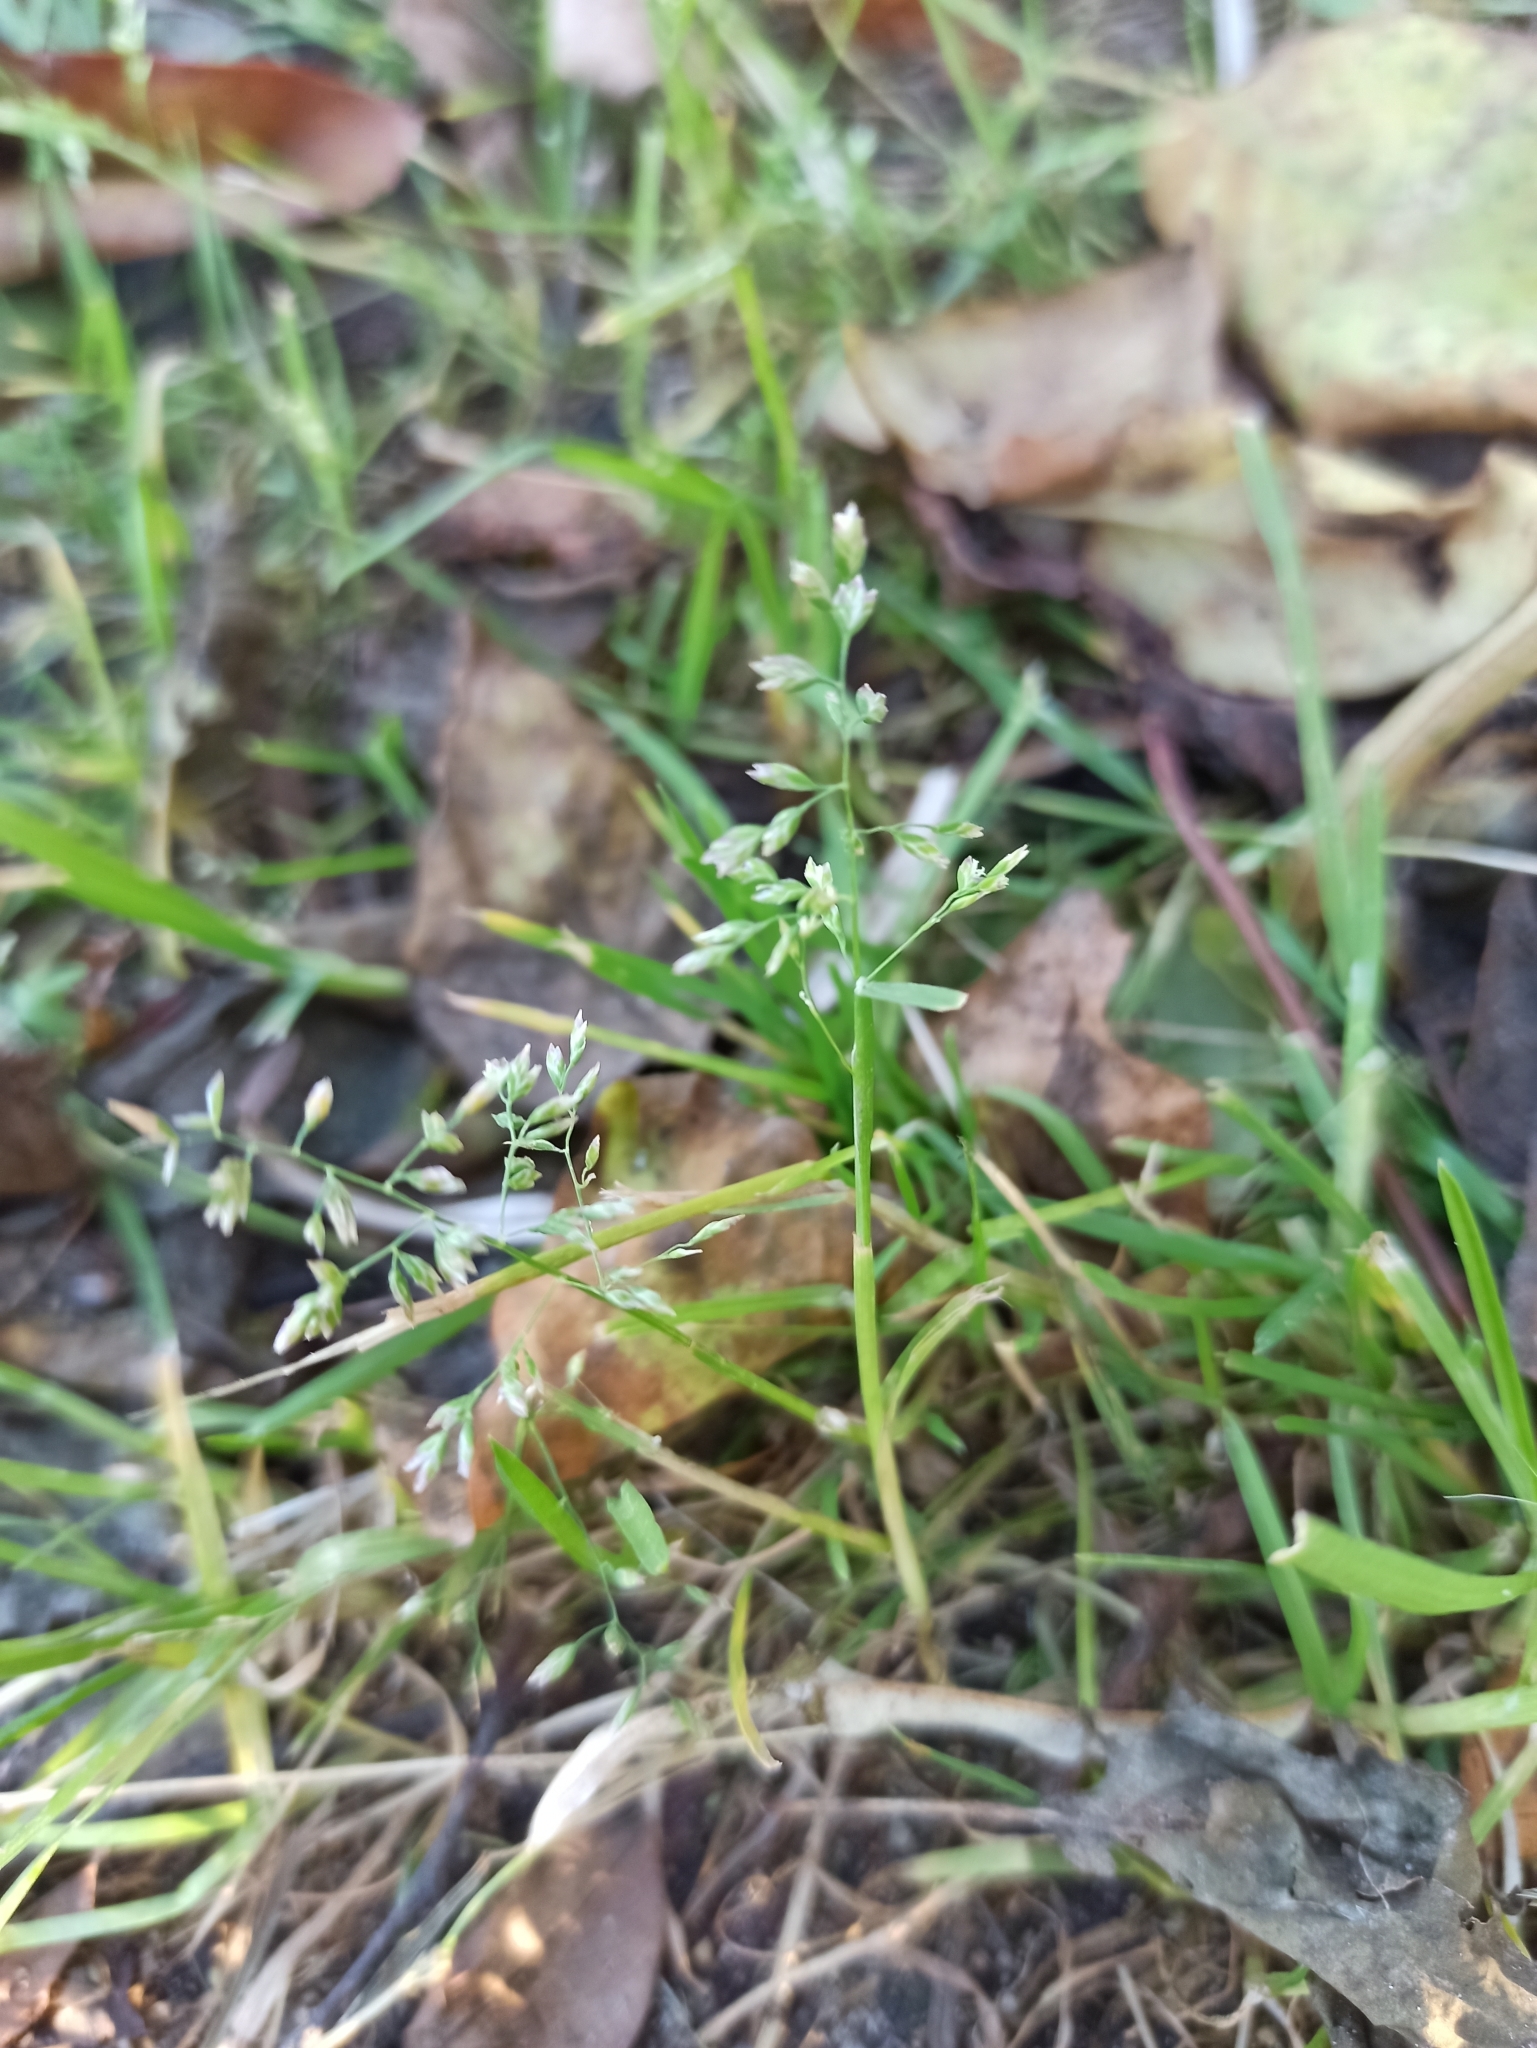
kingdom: Plantae
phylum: Tracheophyta
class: Liliopsida
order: Poales
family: Poaceae
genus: Poa
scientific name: Poa annua
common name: Annual bluegrass
